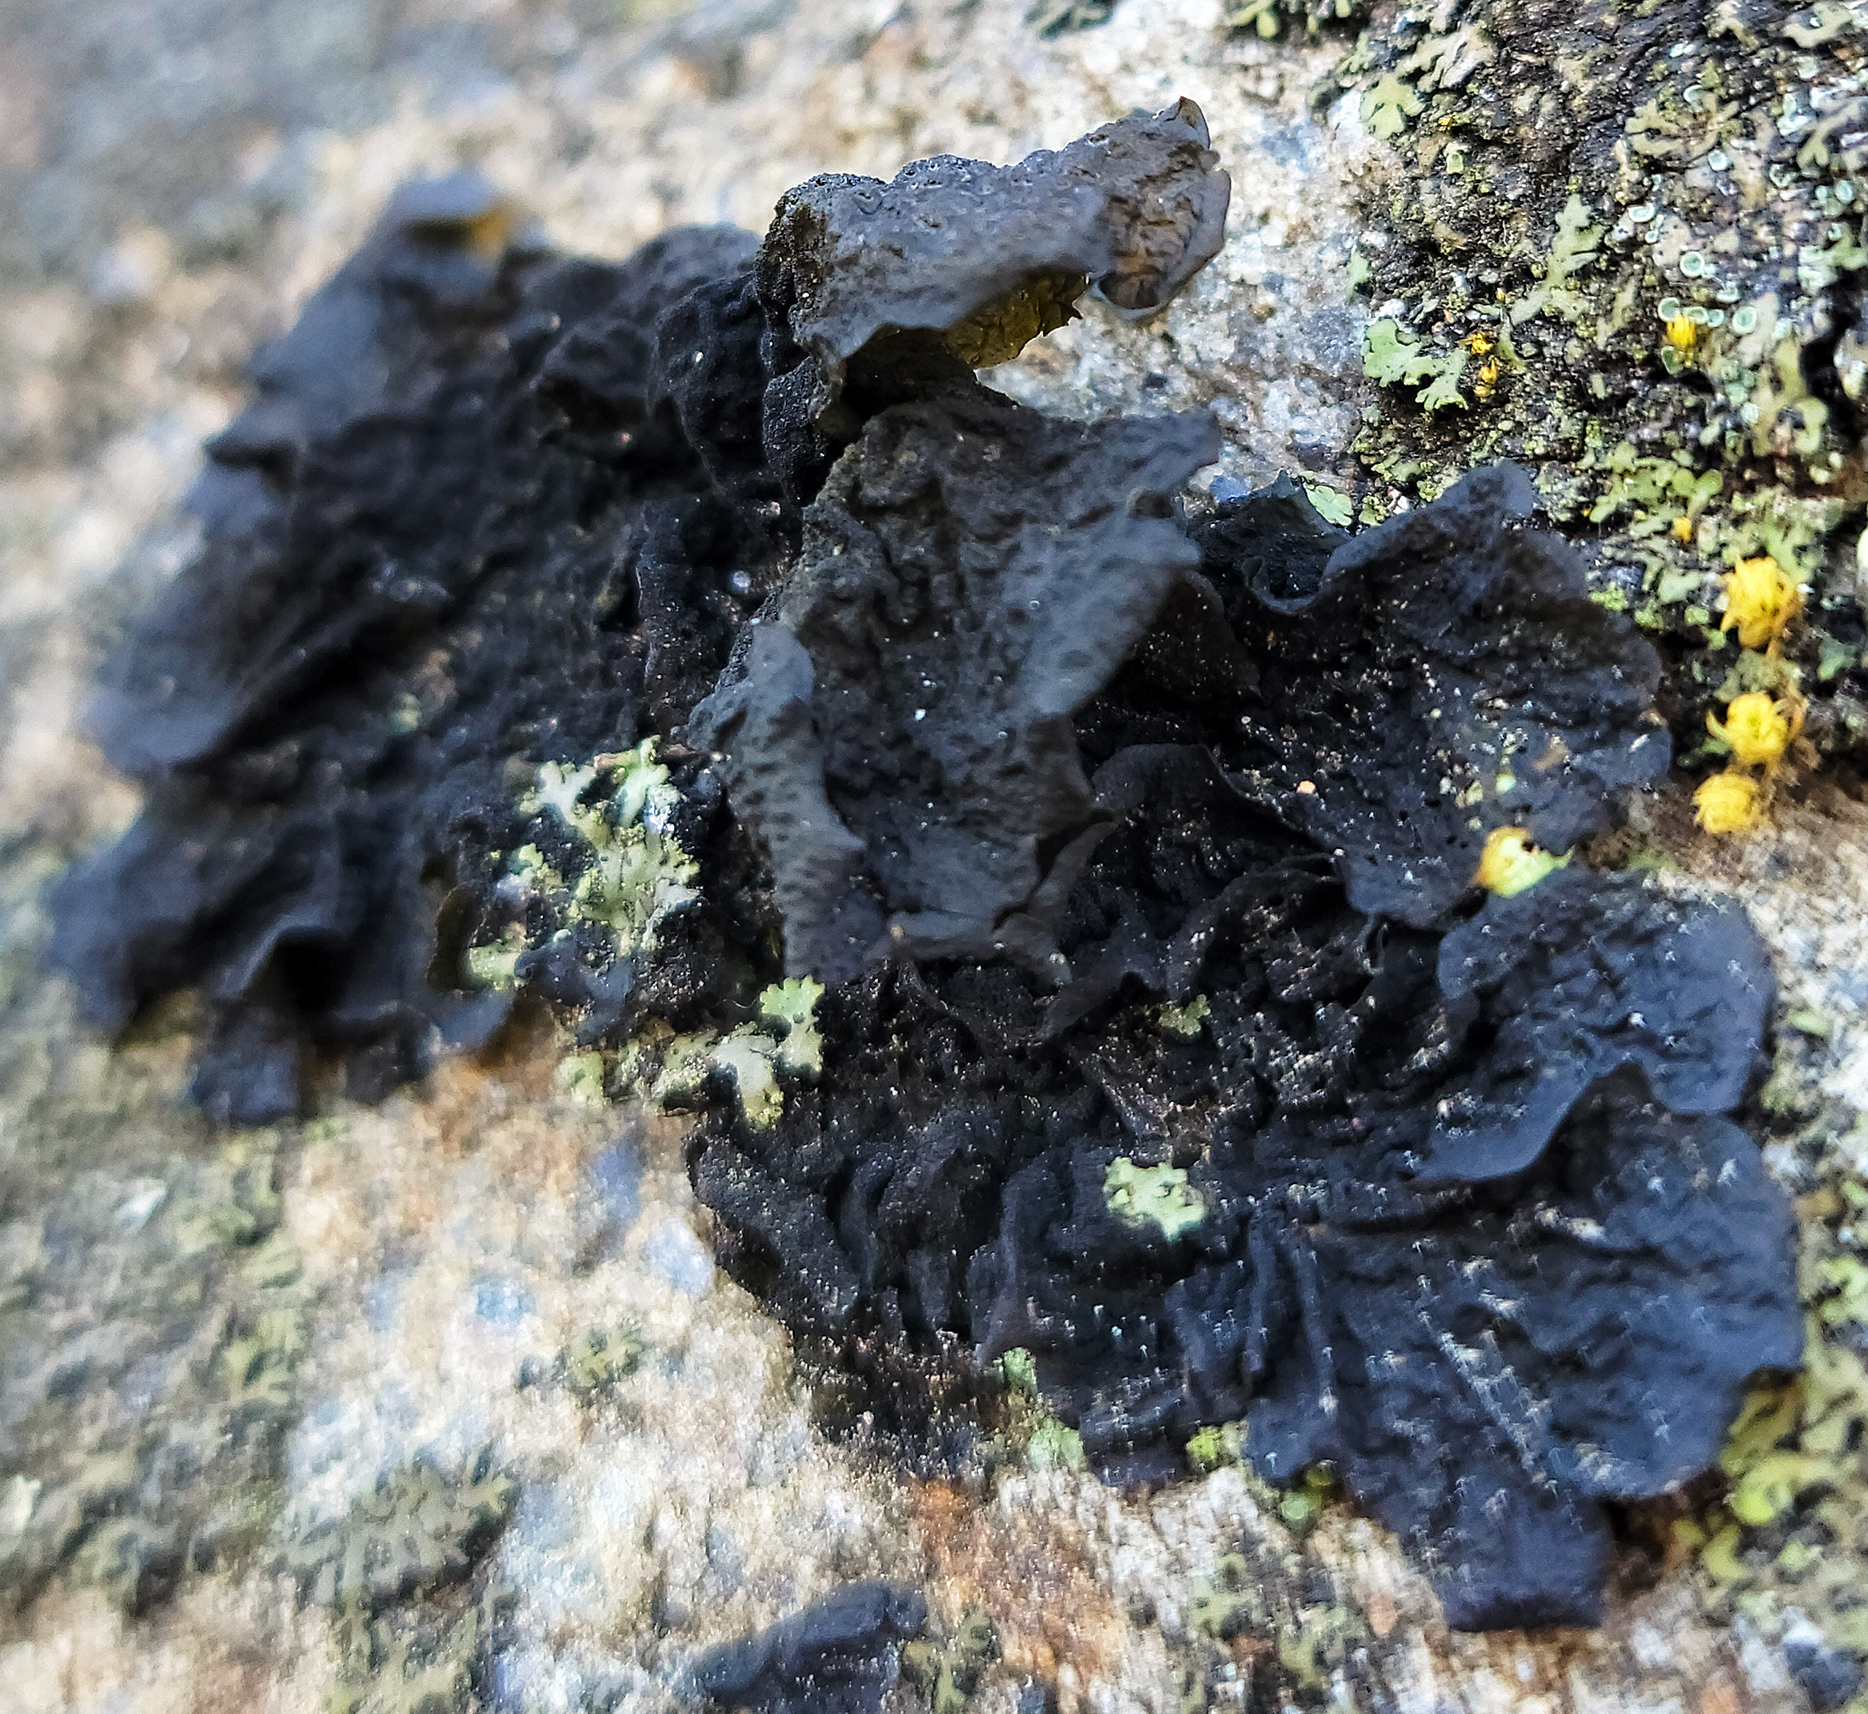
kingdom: Fungi
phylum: Ascomycota
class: Lecanoromycetes
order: Peltigerales
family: Collemataceae
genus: Collema
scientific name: Collema furfuraceum
